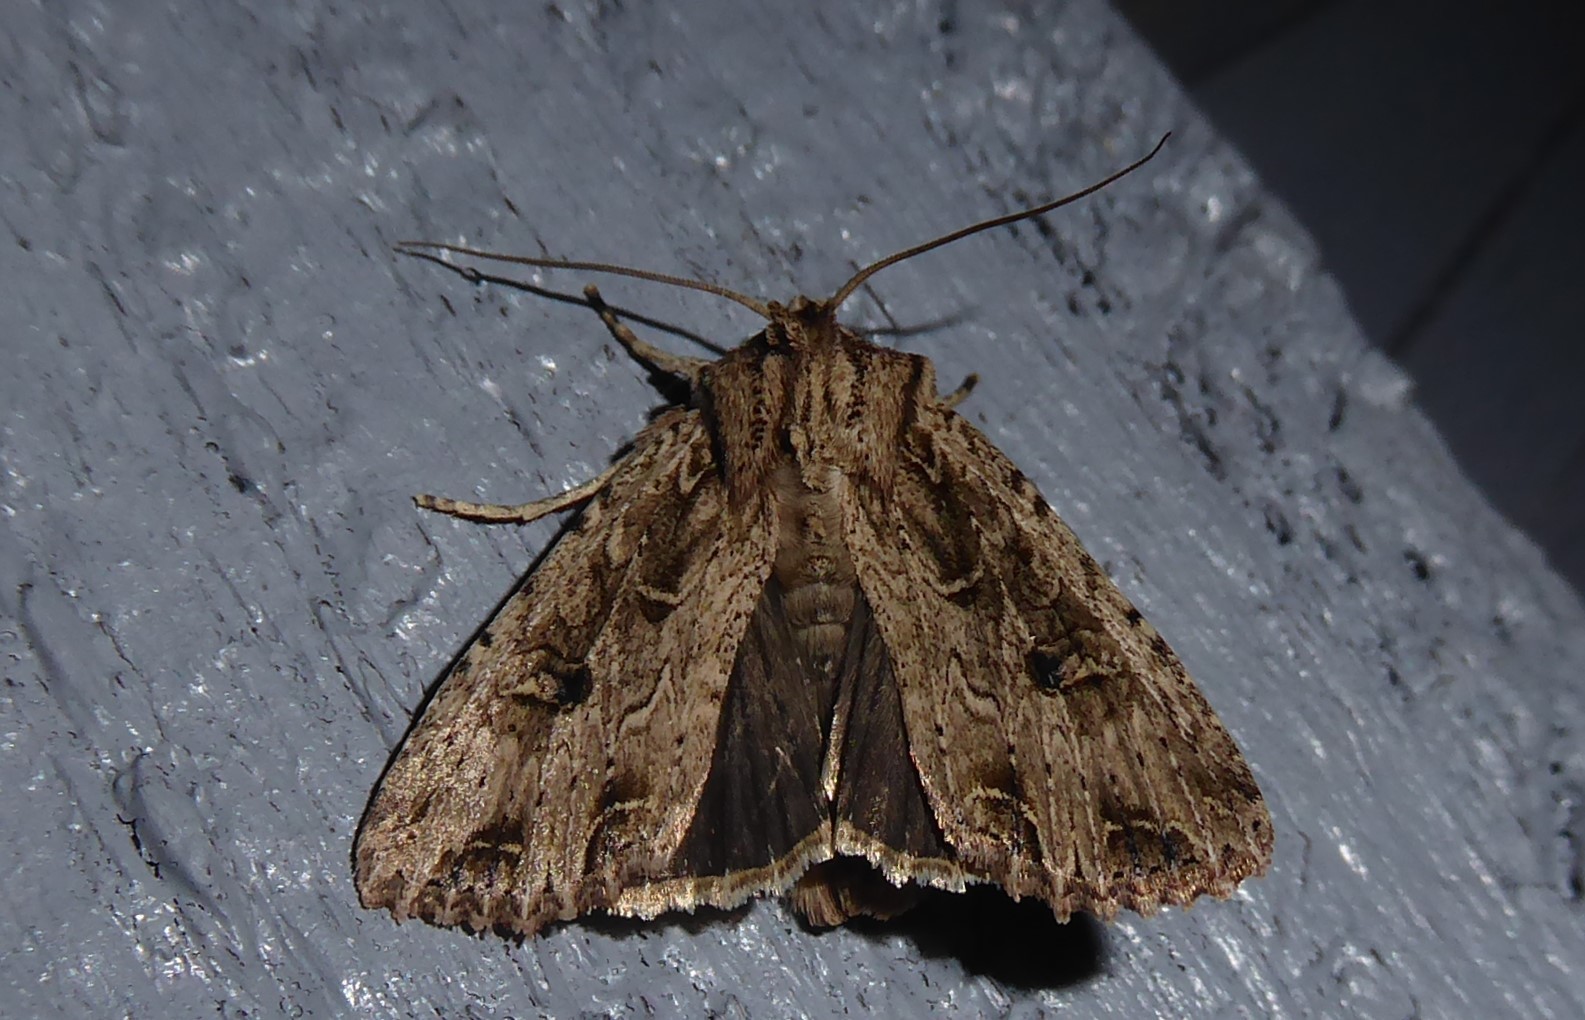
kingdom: Animalia
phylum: Arthropoda
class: Insecta
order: Lepidoptera
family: Noctuidae
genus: Ichneutica
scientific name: Ichneutica lignana
